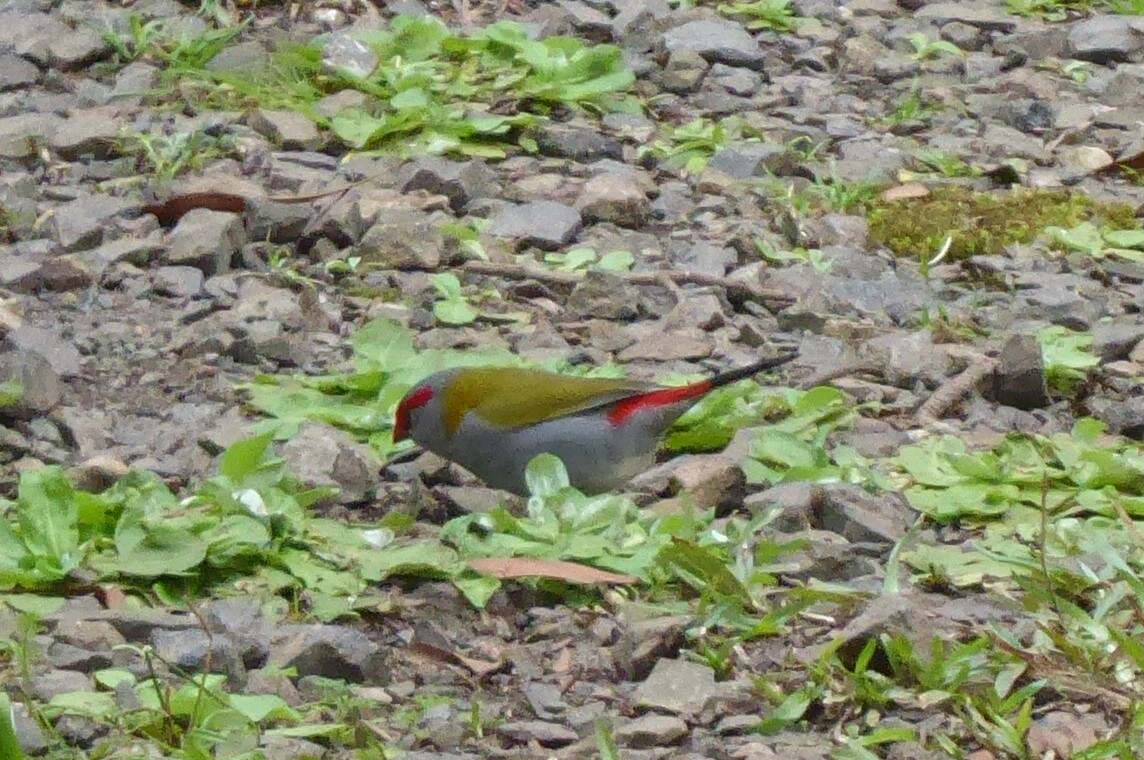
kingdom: Animalia
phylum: Chordata
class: Aves
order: Passeriformes
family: Estrildidae
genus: Neochmia
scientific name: Neochmia temporalis
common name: Red-browed finch
